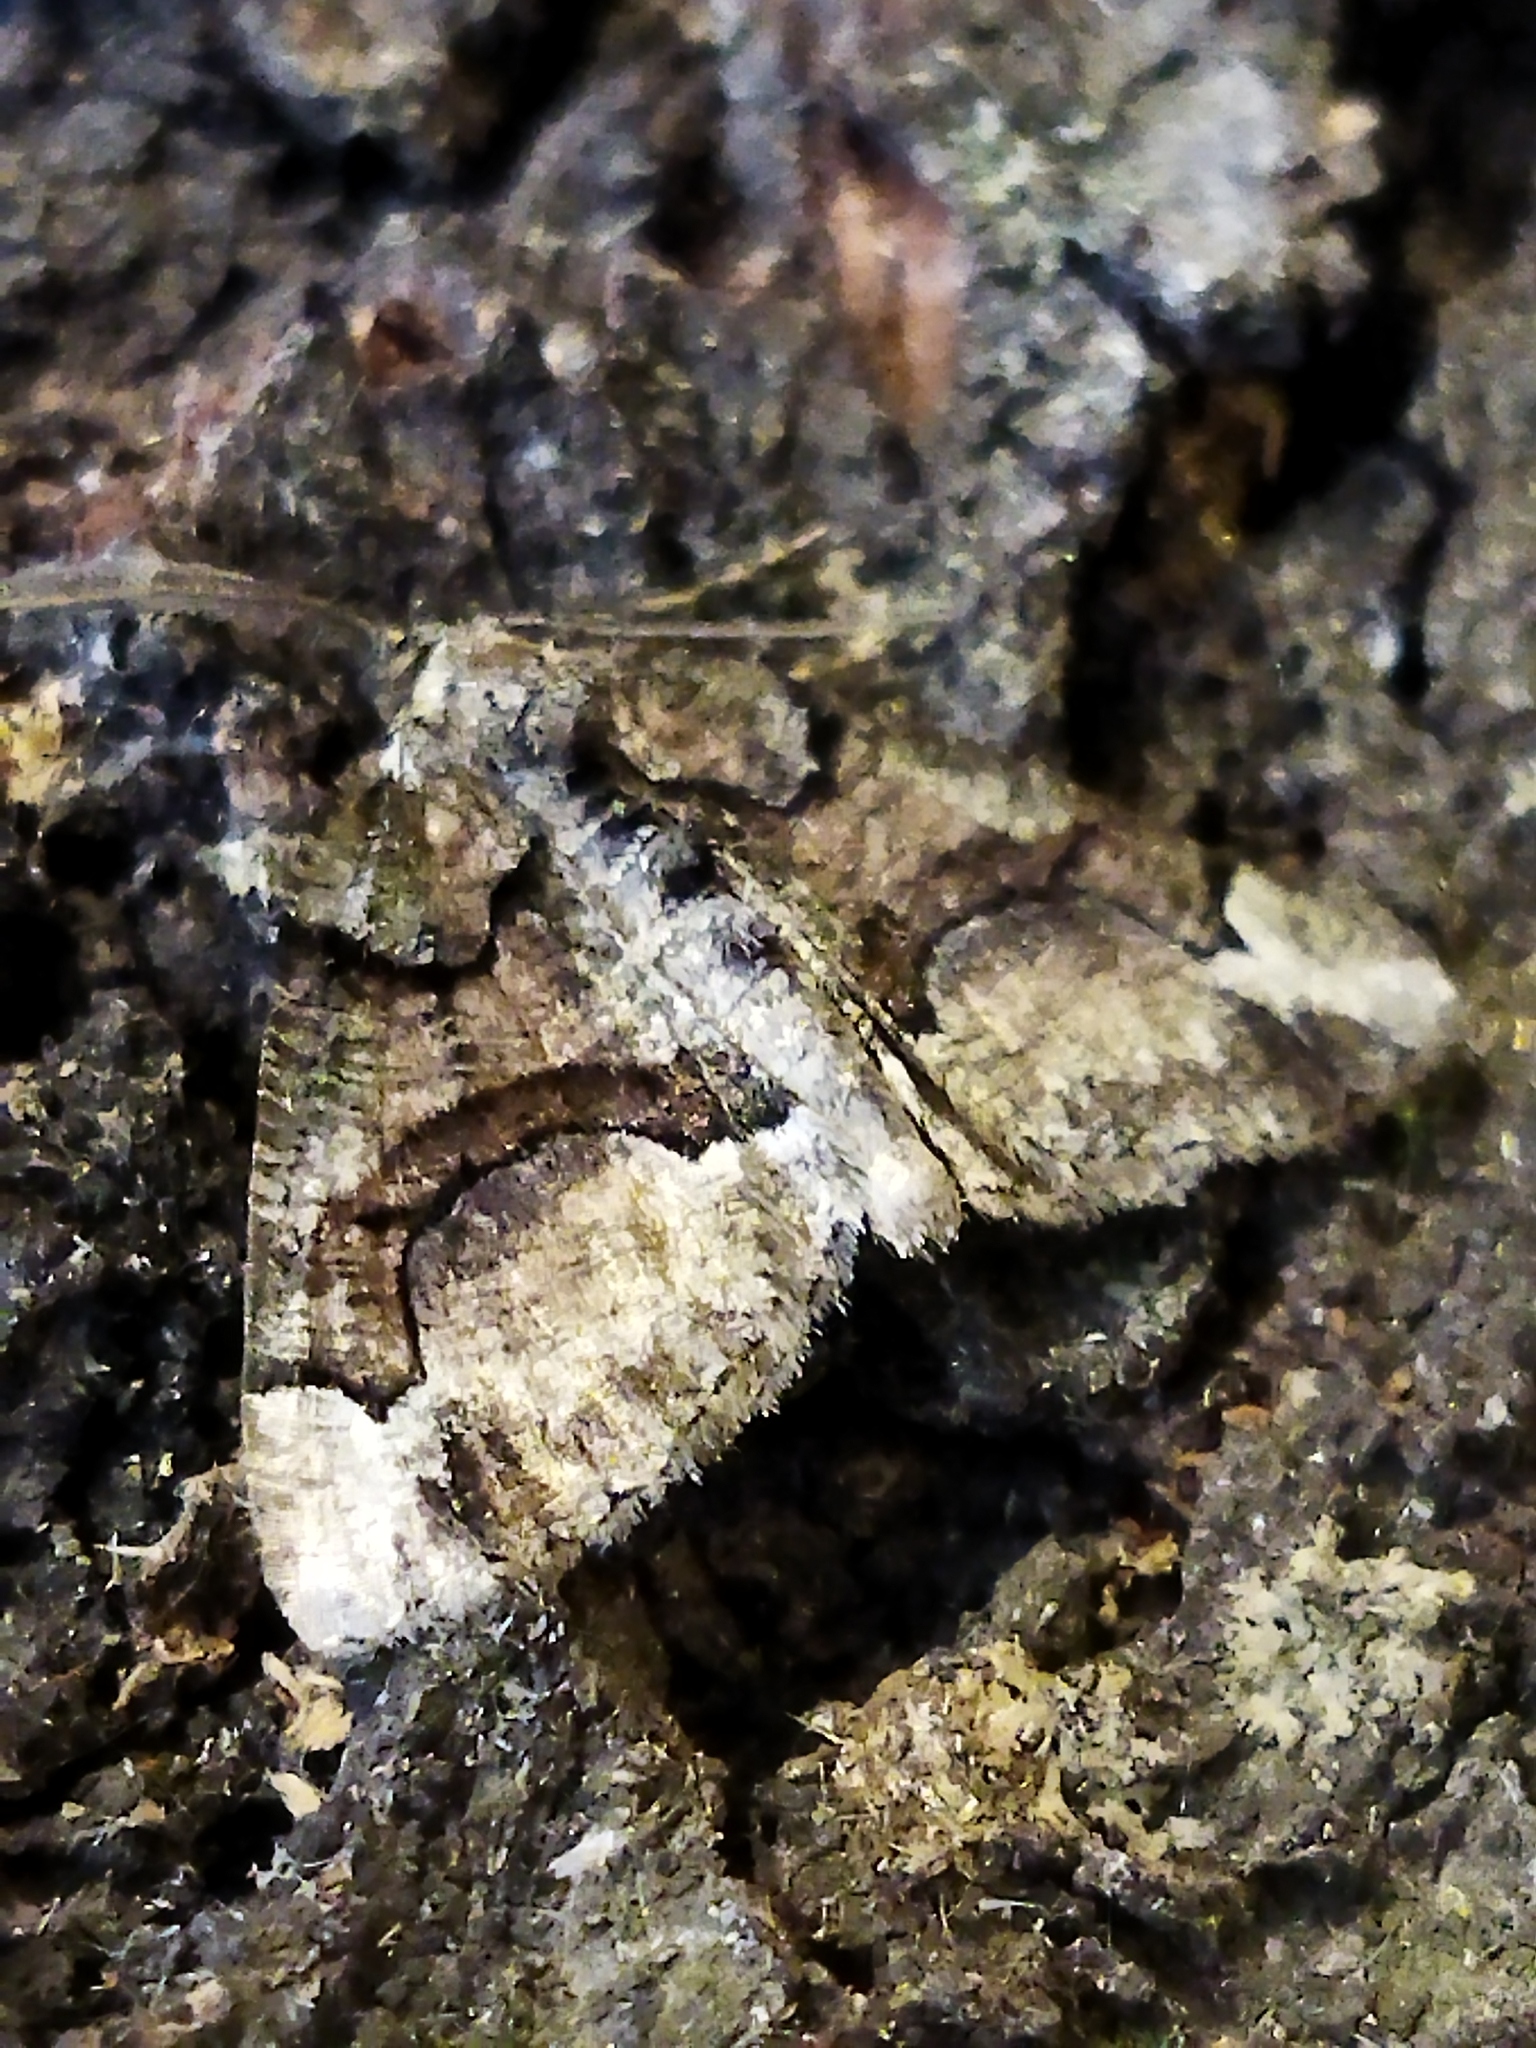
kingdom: Animalia
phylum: Arthropoda
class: Insecta
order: Lepidoptera
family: Geometridae
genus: Asovia
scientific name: Asovia maeoticaria
